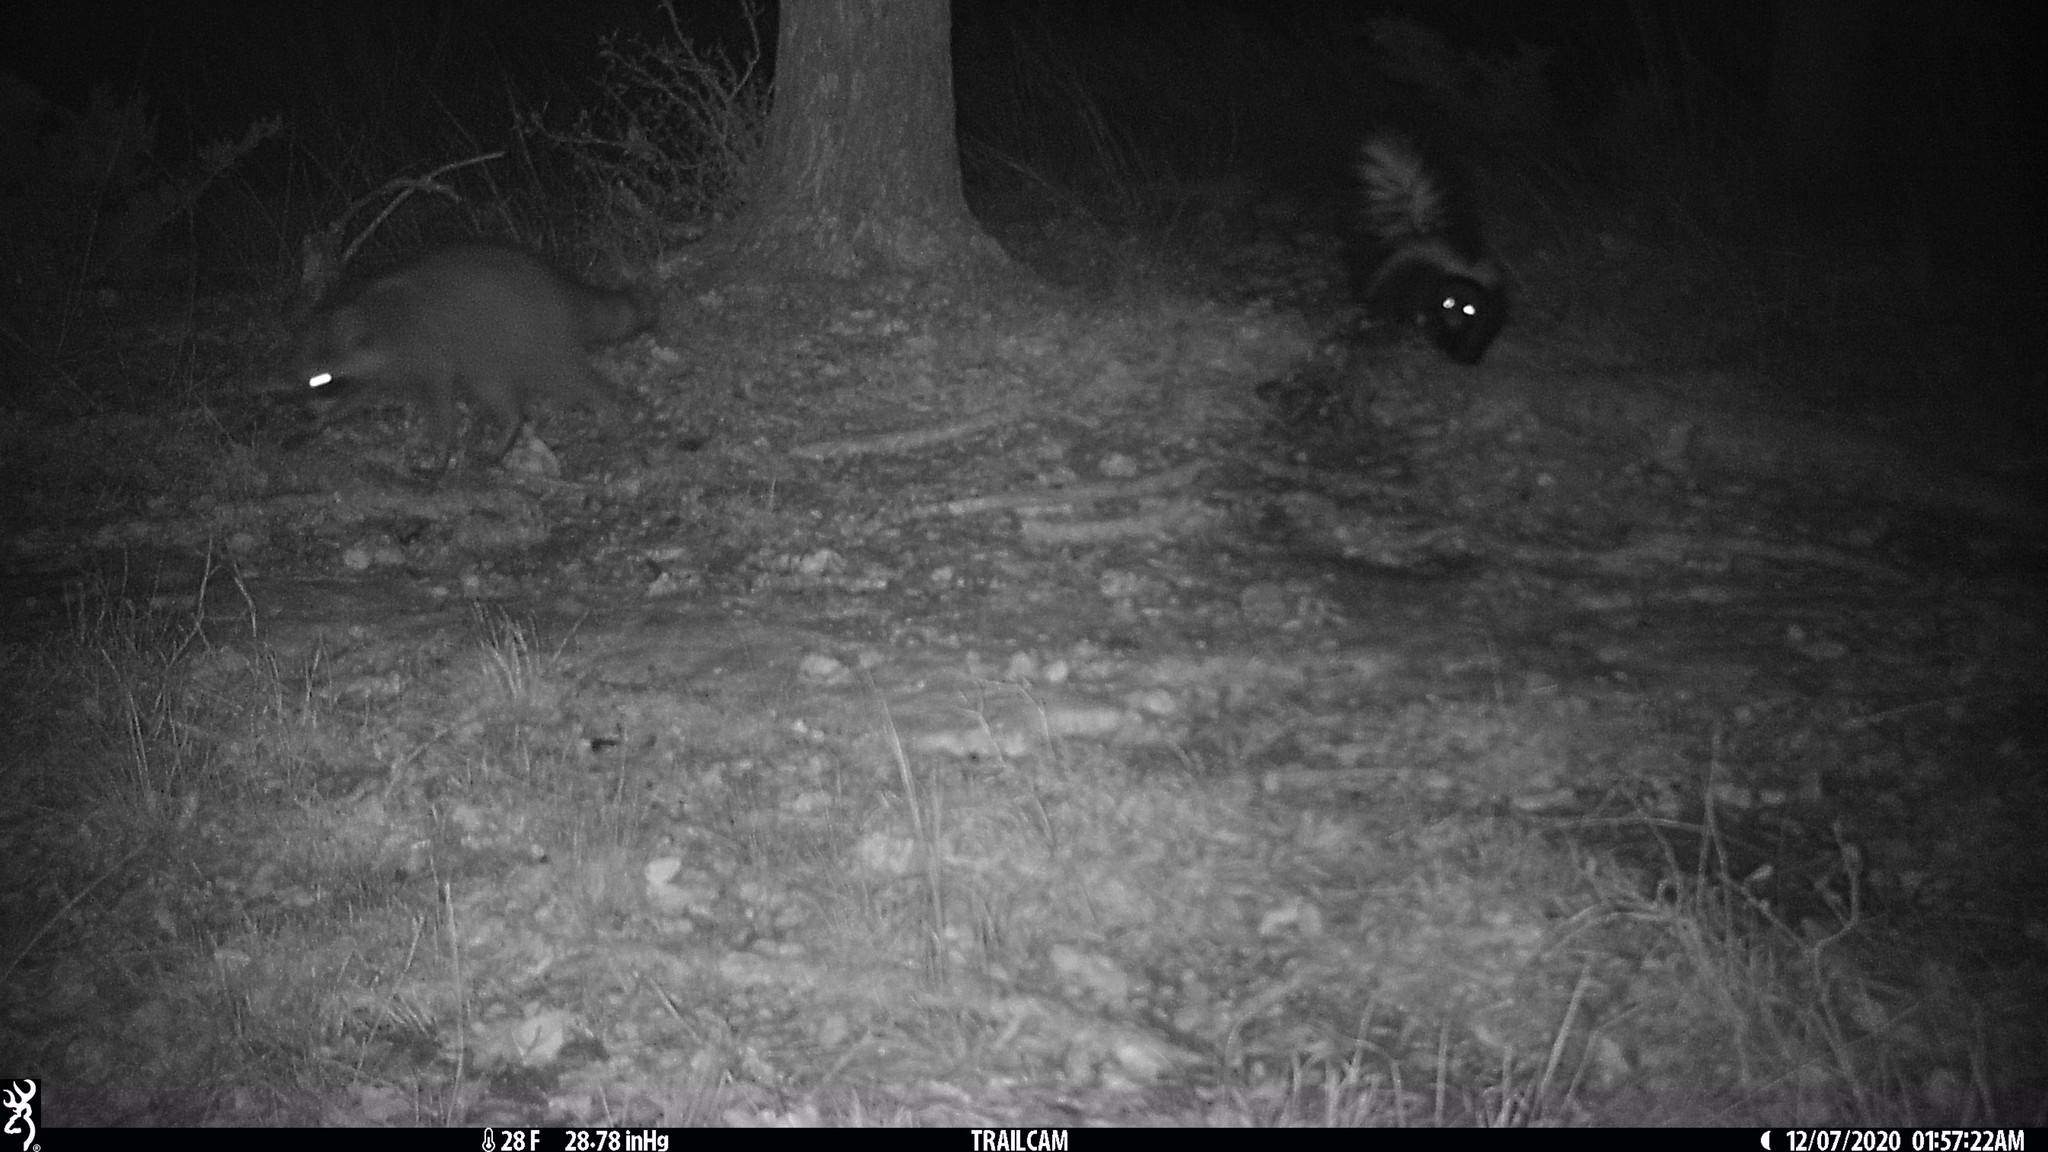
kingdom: Animalia
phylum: Chordata
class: Mammalia
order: Carnivora
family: Mephitidae
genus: Mephitis
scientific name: Mephitis mephitis
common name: Striped skunk
